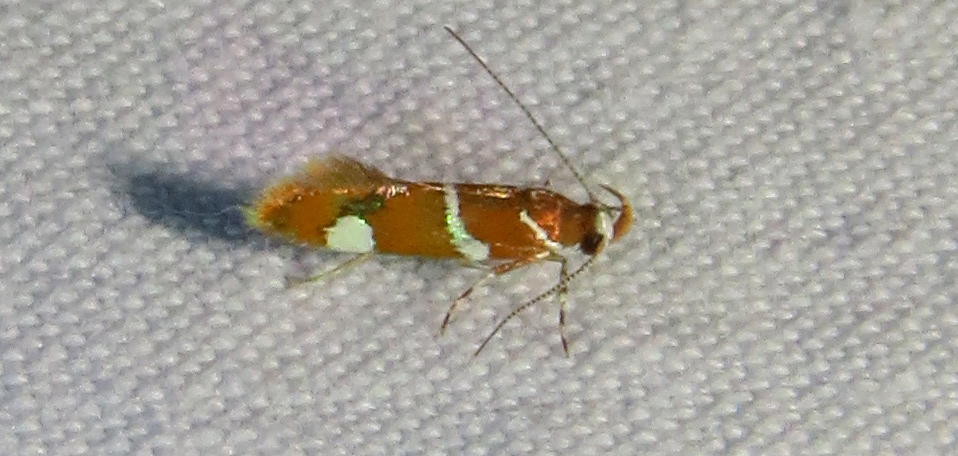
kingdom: Animalia
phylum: Arthropoda
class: Insecta
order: Lepidoptera
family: Oecophoridae
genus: Promalactis
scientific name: Promalactis suzukiella
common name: Moth
